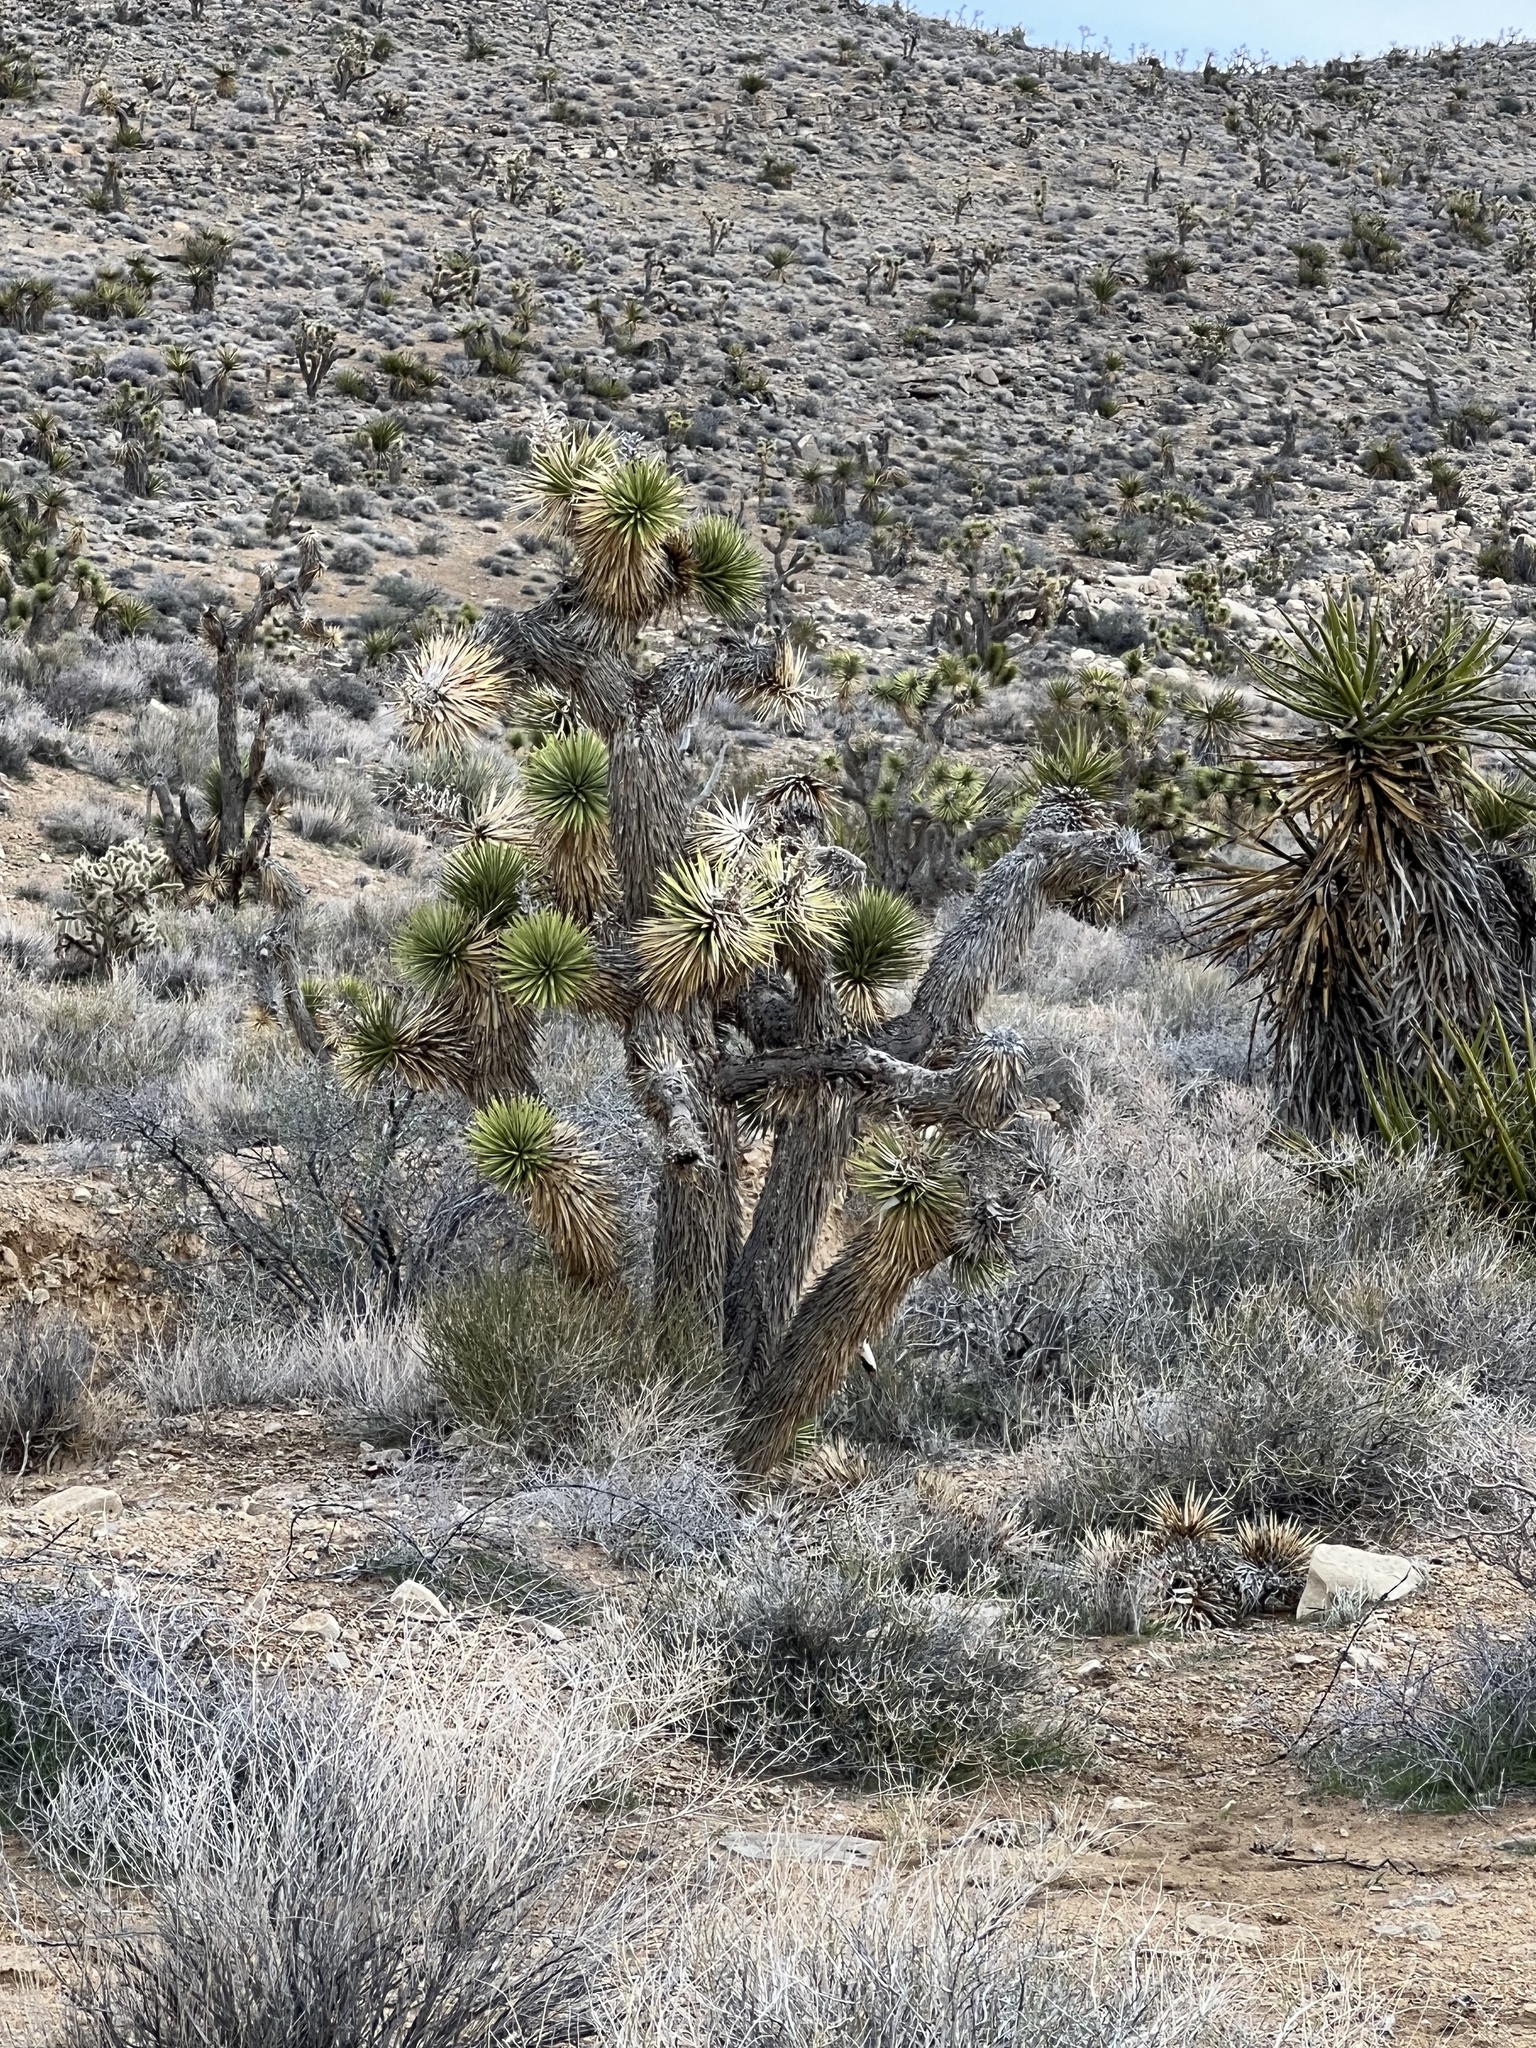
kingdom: Plantae
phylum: Tracheophyta
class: Liliopsida
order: Asparagales
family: Asparagaceae
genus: Yucca
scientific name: Yucca brevifolia
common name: Joshua tree
